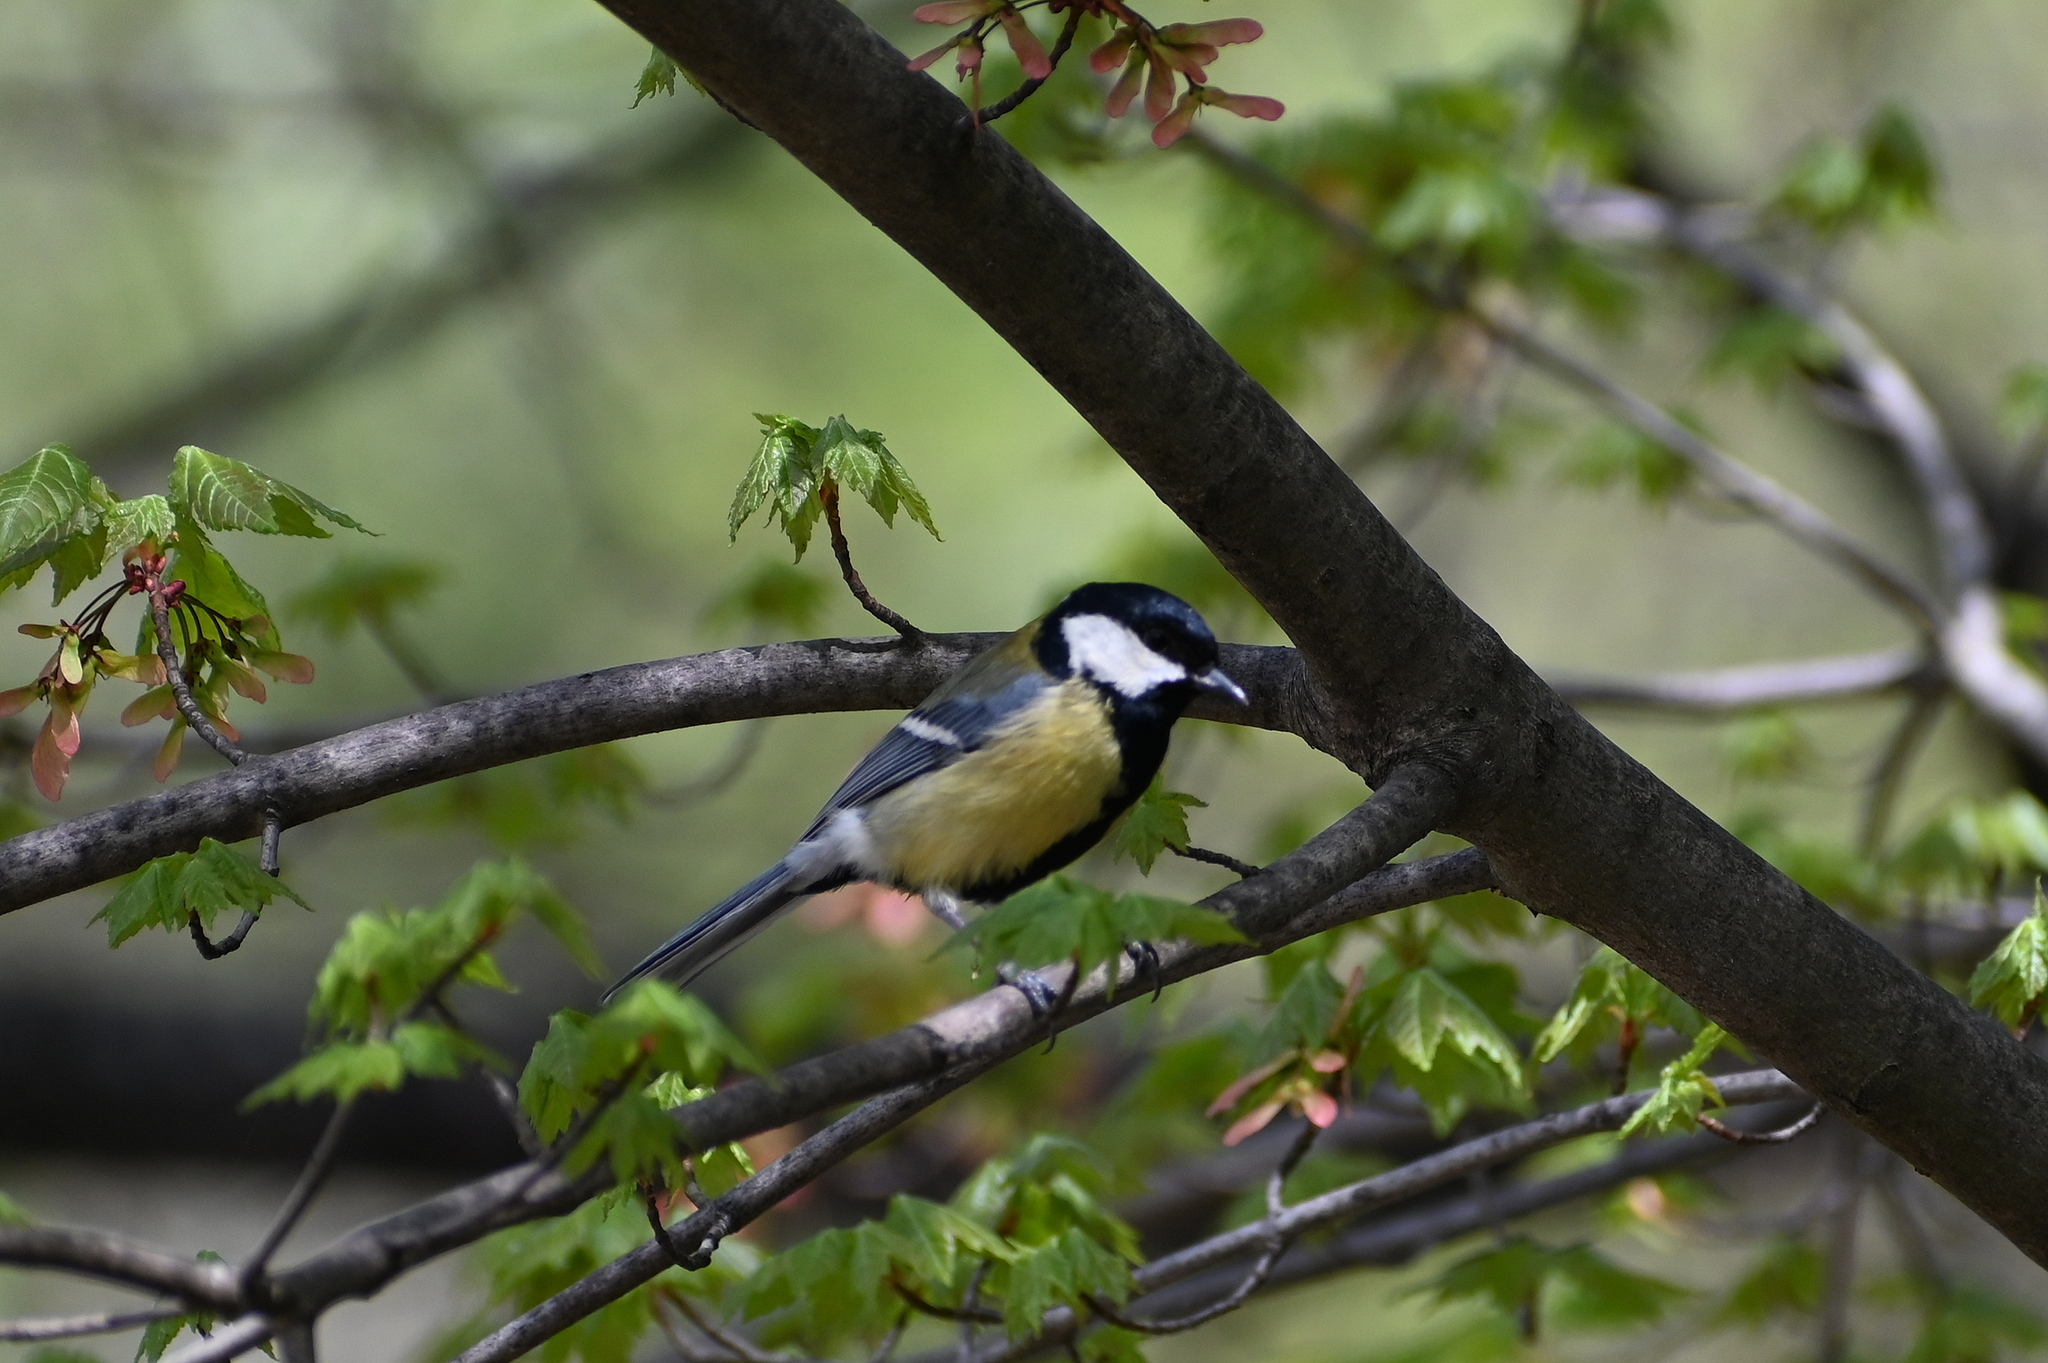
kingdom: Animalia
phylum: Chordata
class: Aves
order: Passeriformes
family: Paridae
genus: Parus
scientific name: Parus major
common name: Great tit
